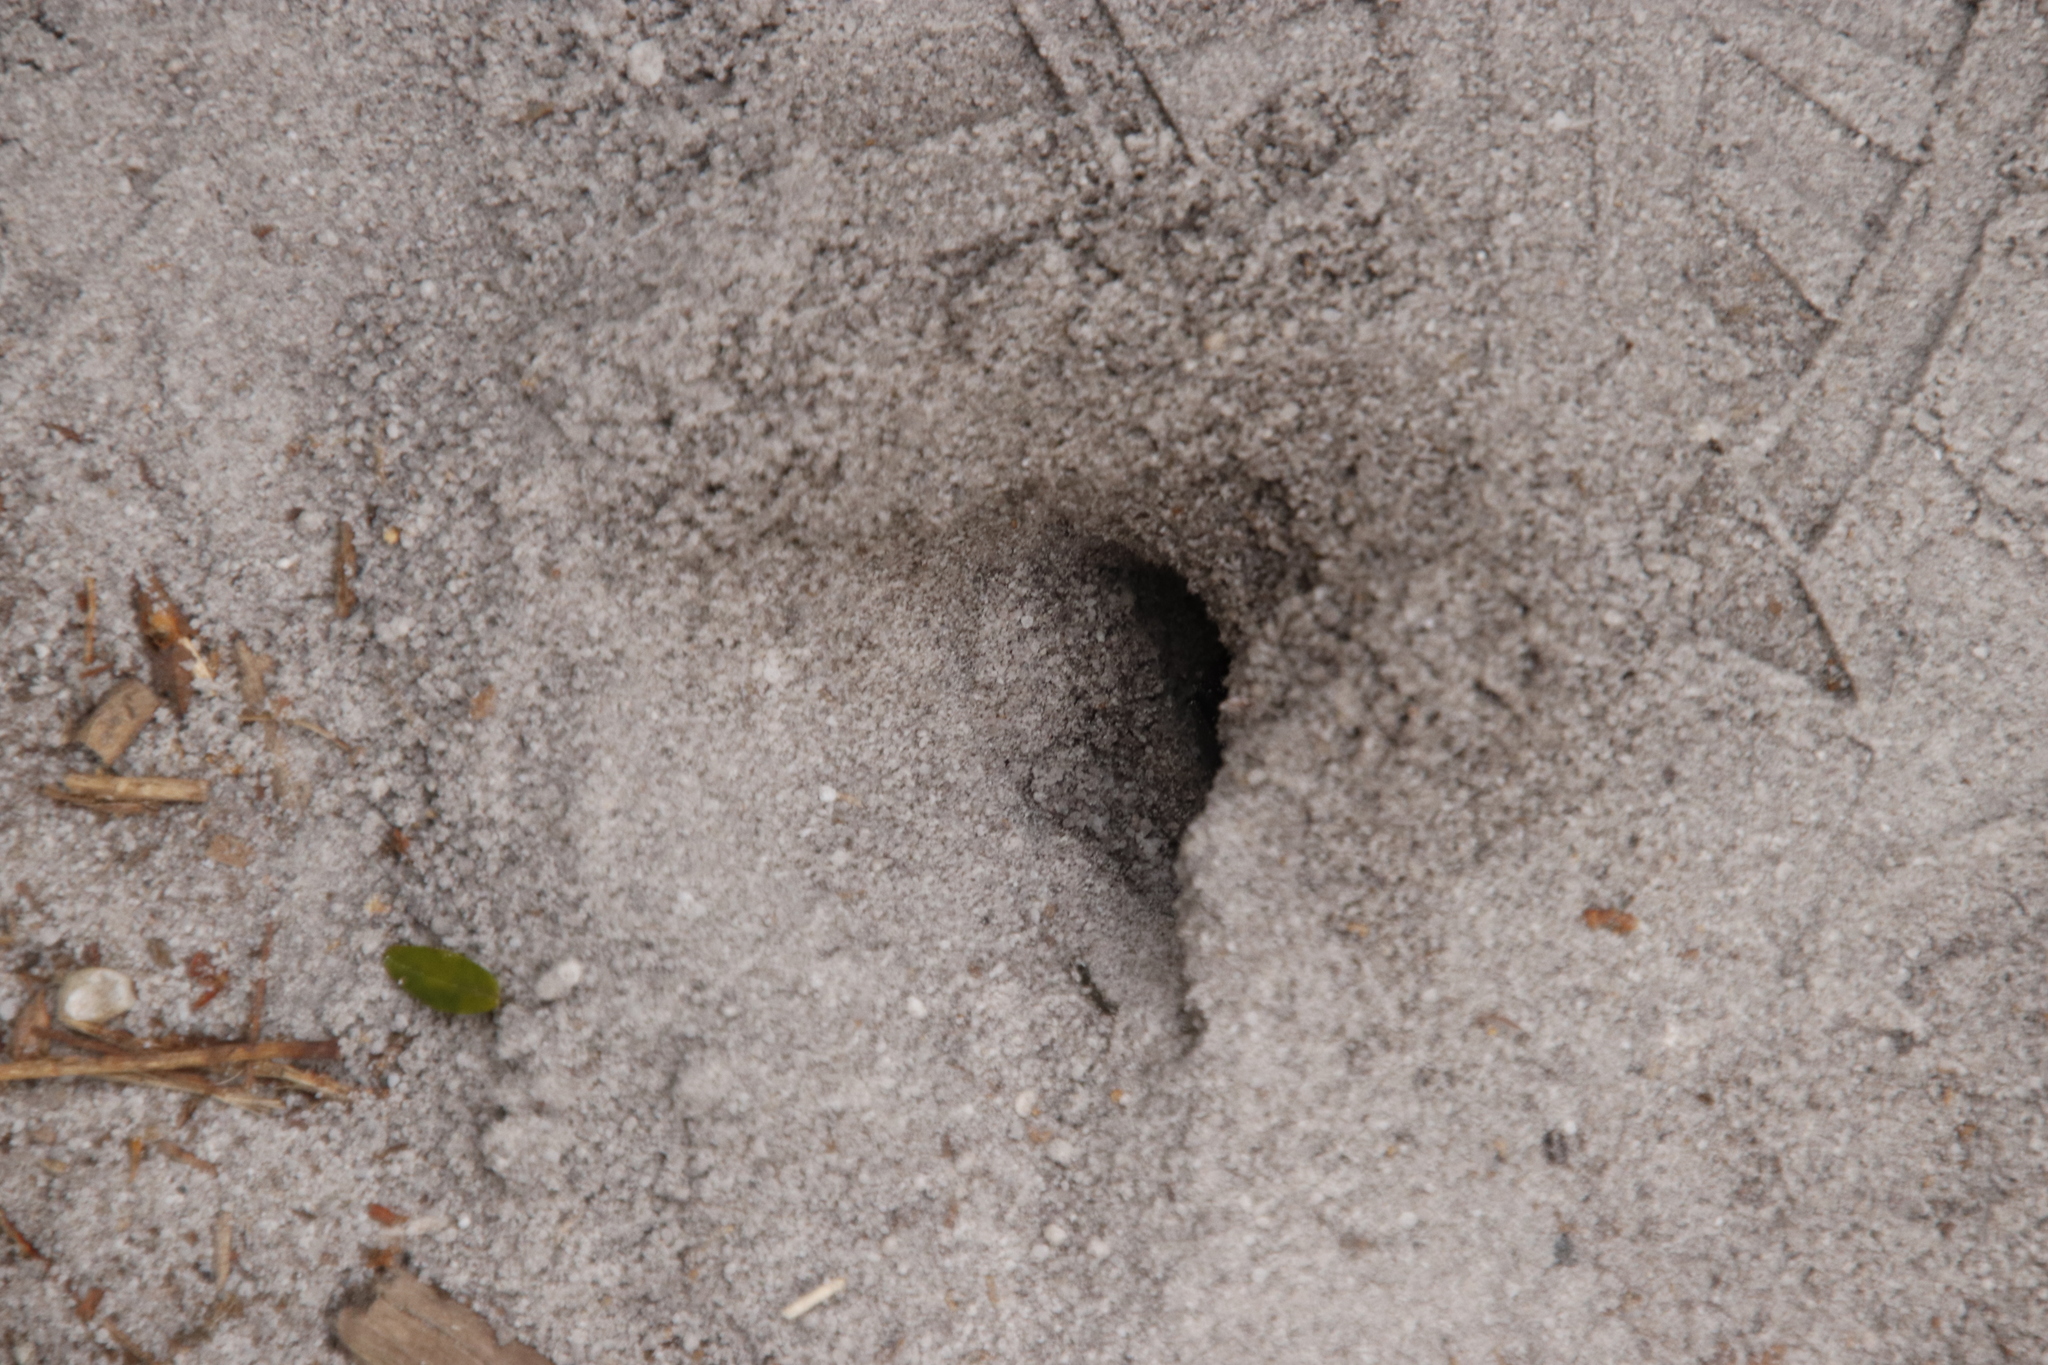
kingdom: Animalia
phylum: Arthropoda
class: Insecta
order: Coleoptera
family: Scarabaeidae
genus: Scarabaeus
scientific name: Scarabaeus convexus
